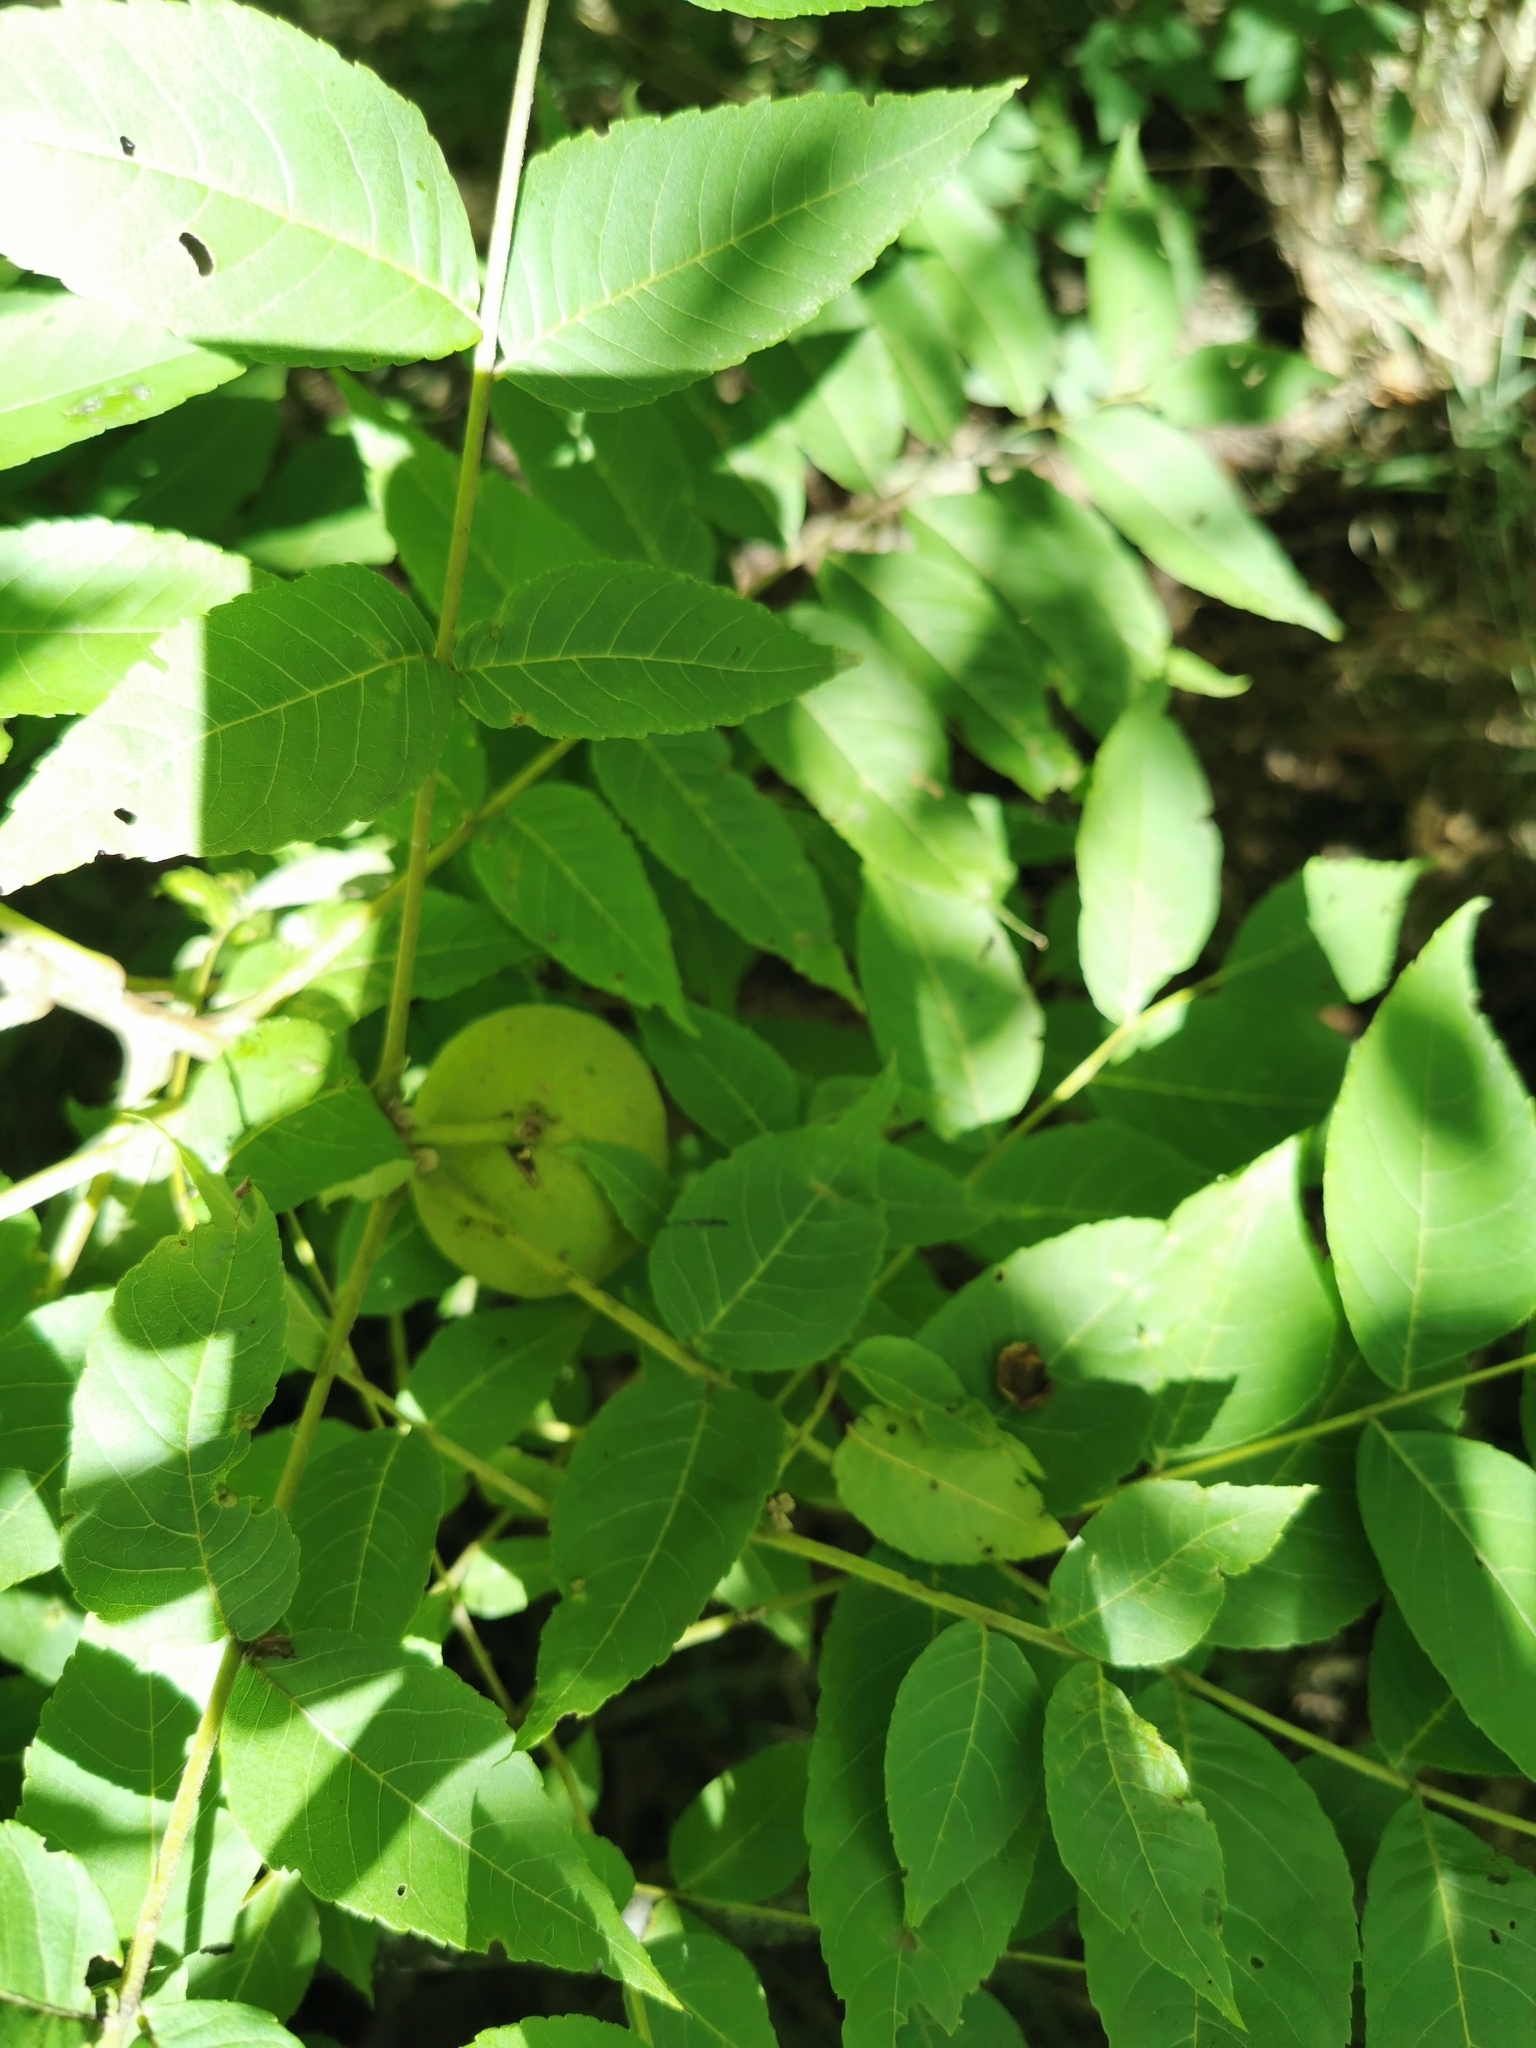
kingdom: Plantae
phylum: Tracheophyta
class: Magnoliopsida
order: Fagales
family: Juglandaceae
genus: Juglans
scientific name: Juglans nigra
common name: Black walnut
